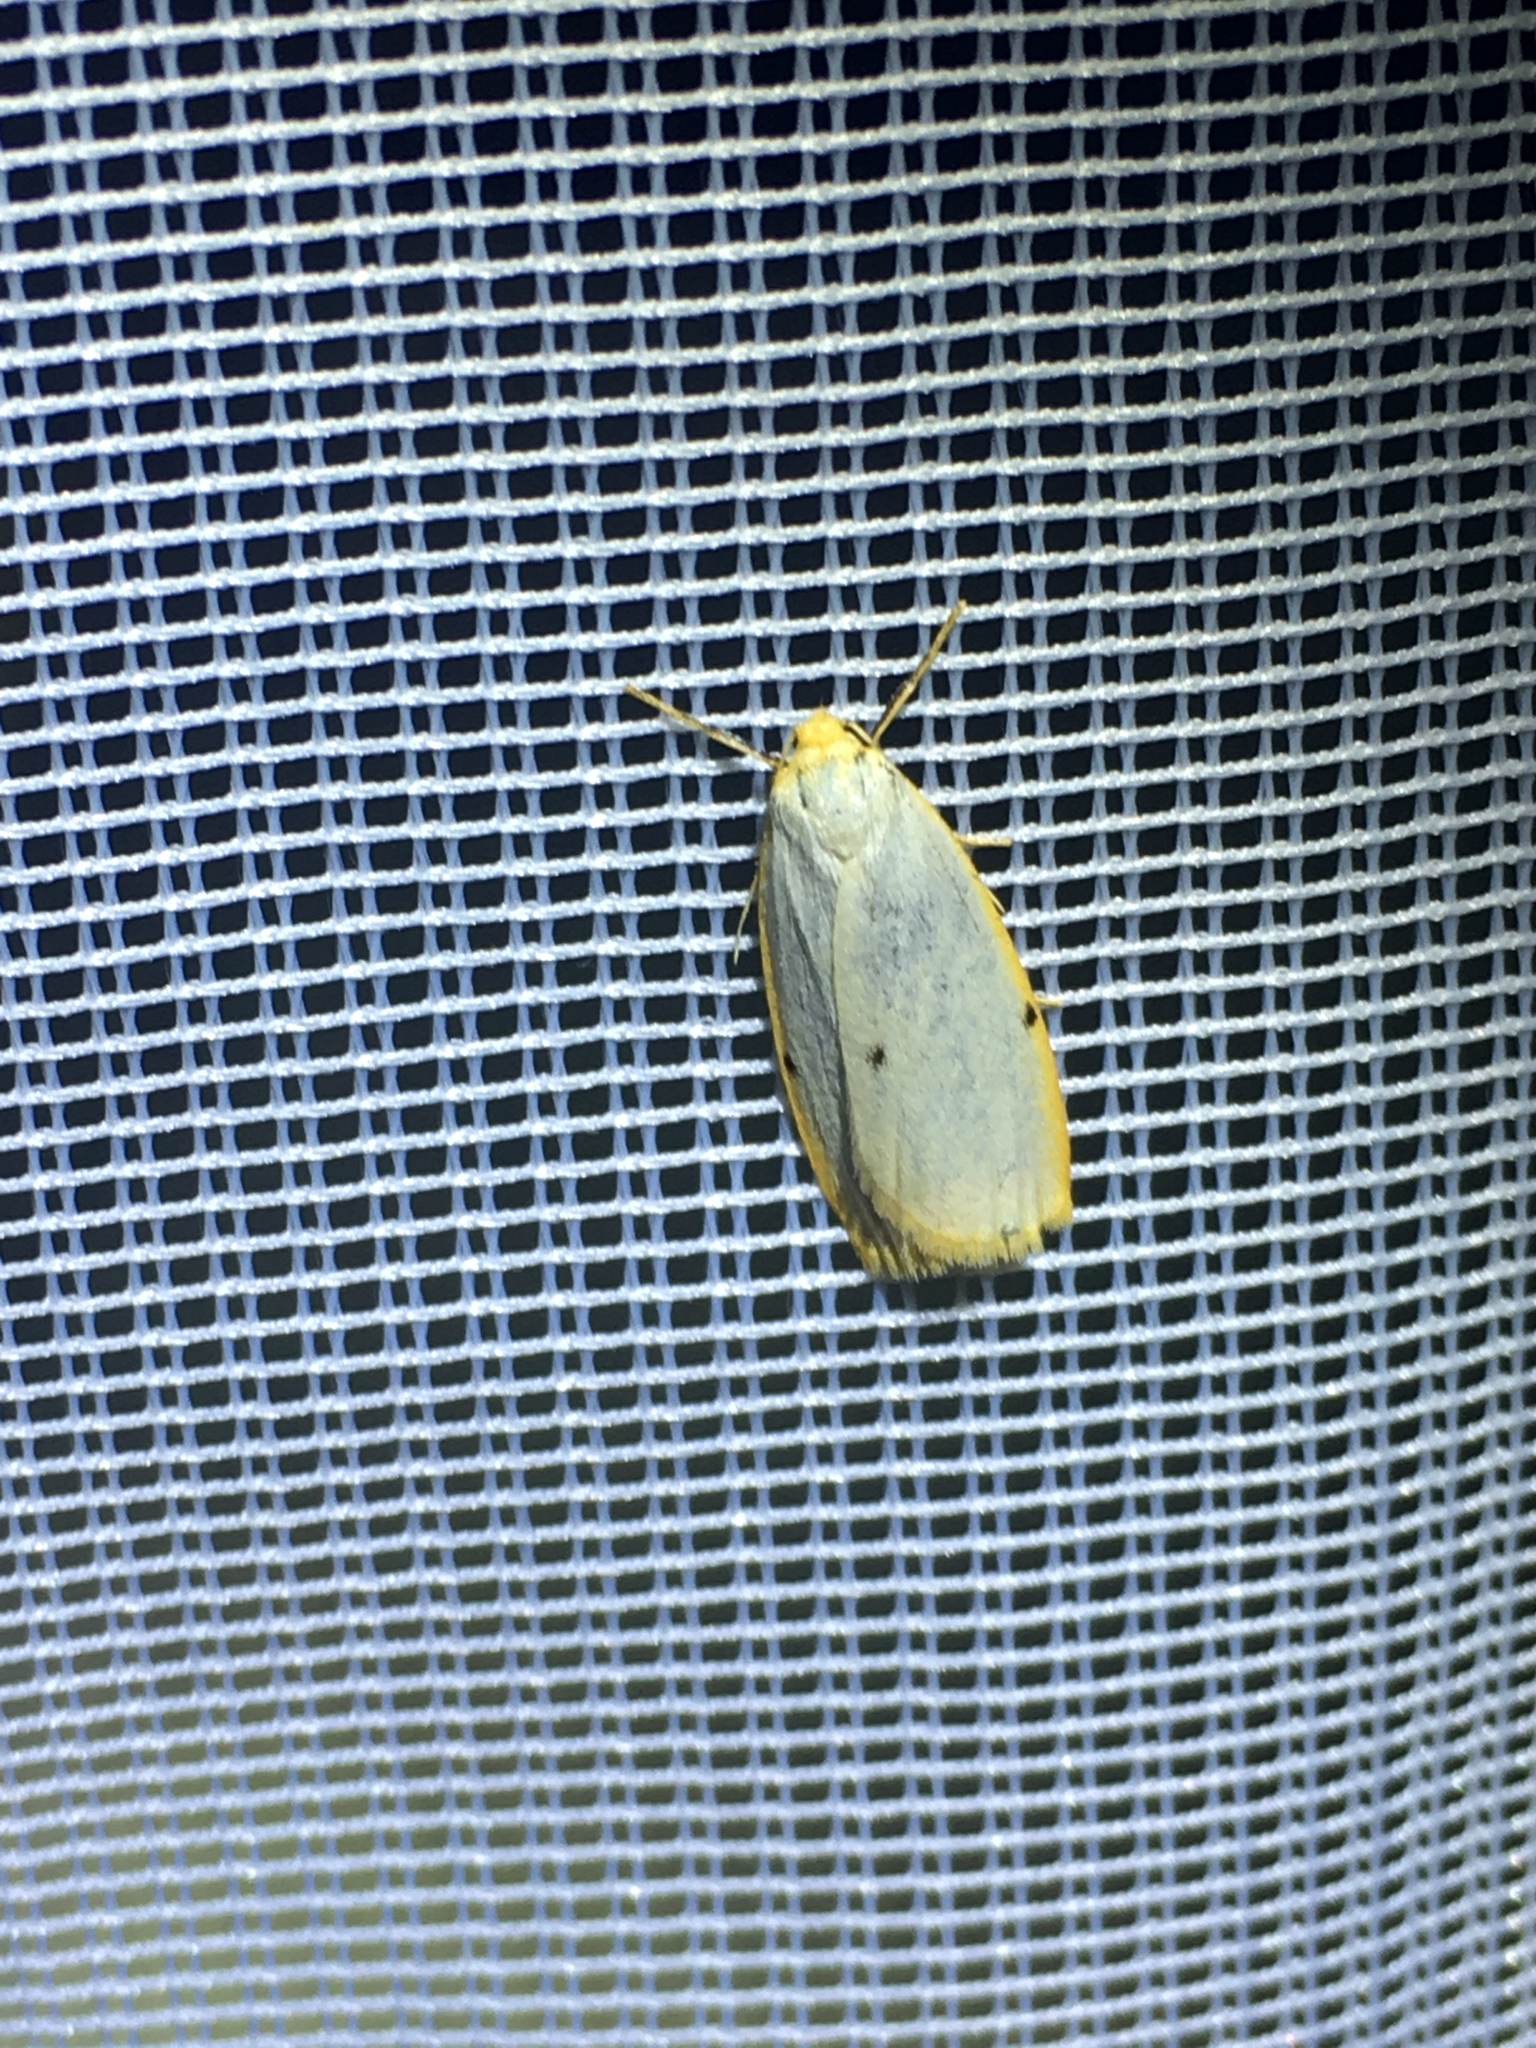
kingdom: Animalia
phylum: Arthropoda
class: Insecta
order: Lepidoptera
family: Erebidae
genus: Cybosia
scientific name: Cybosia mesomella
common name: Four-dotted footman
